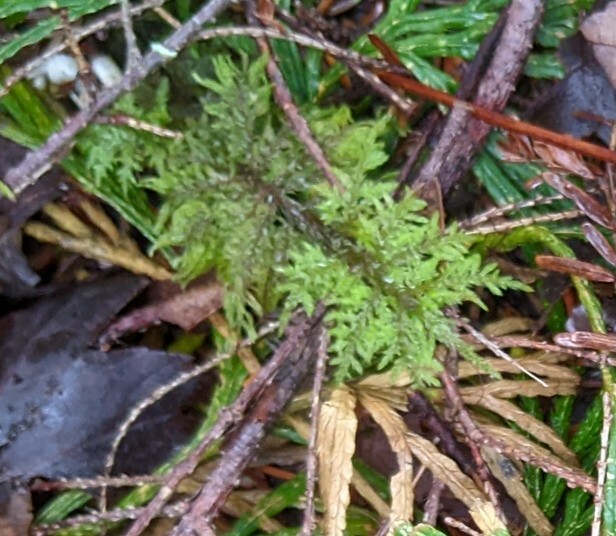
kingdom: Plantae
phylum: Bryophyta
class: Bryopsida
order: Hypnales
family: Hylocomiaceae
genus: Hylocomium
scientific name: Hylocomium splendens
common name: Stairstep moss
